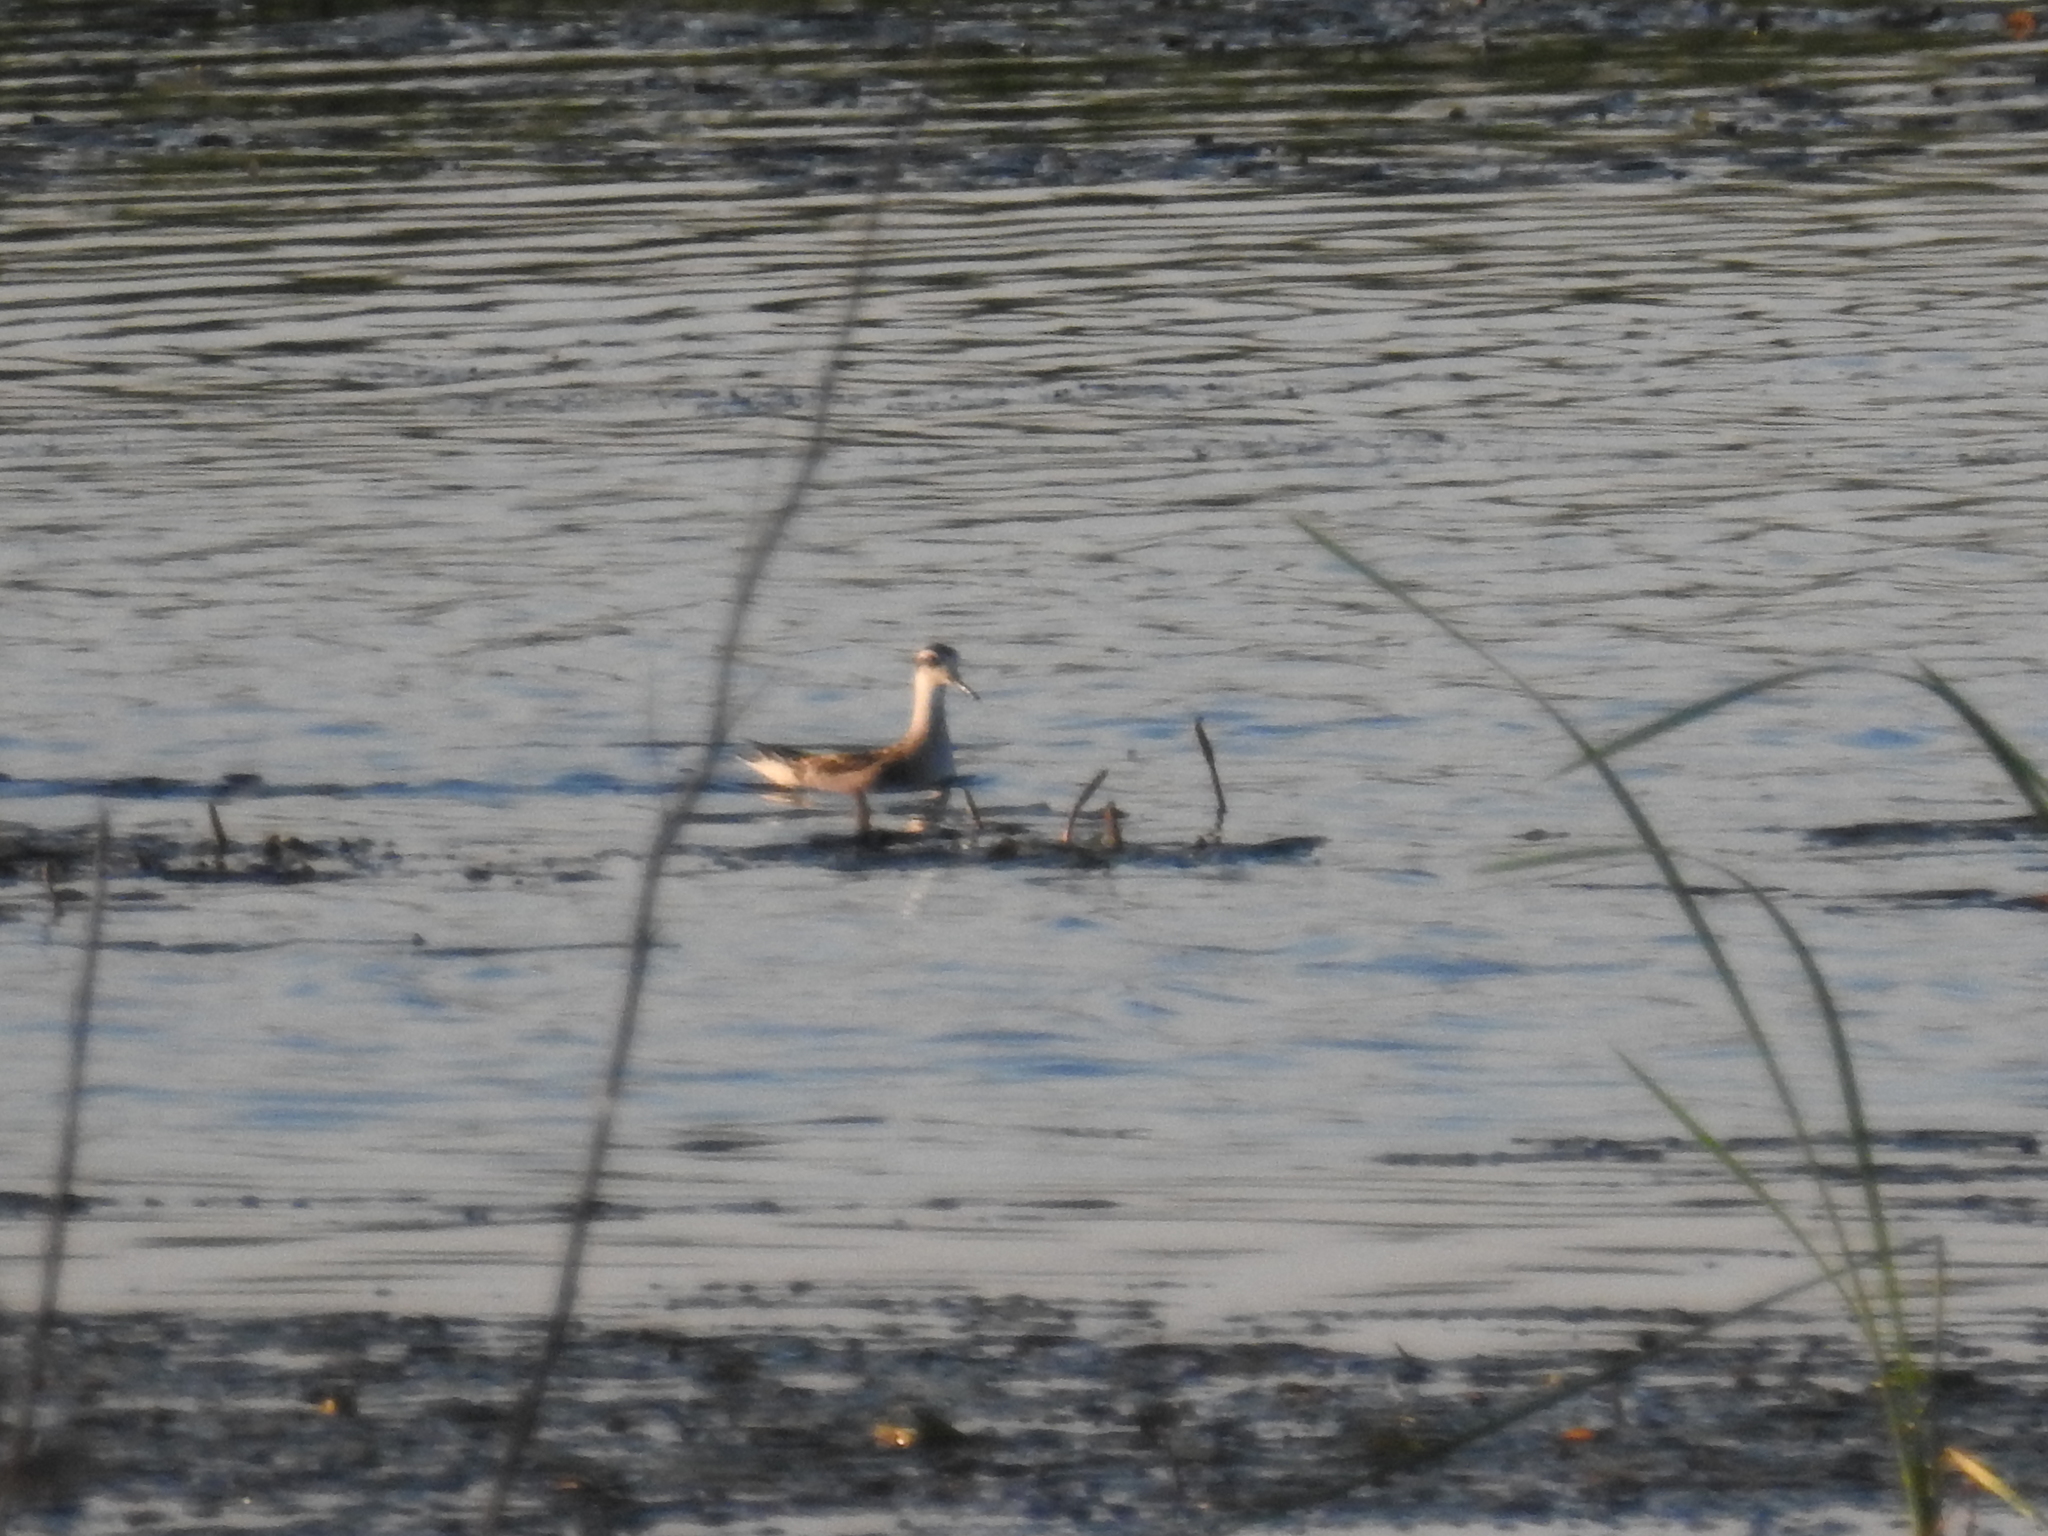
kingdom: Animalia
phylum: Chordata
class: Aves
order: Charadriiformes
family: Scolopacidae
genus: Phalaropus
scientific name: Phalaropus lobatus
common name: Red-necked phalarope
